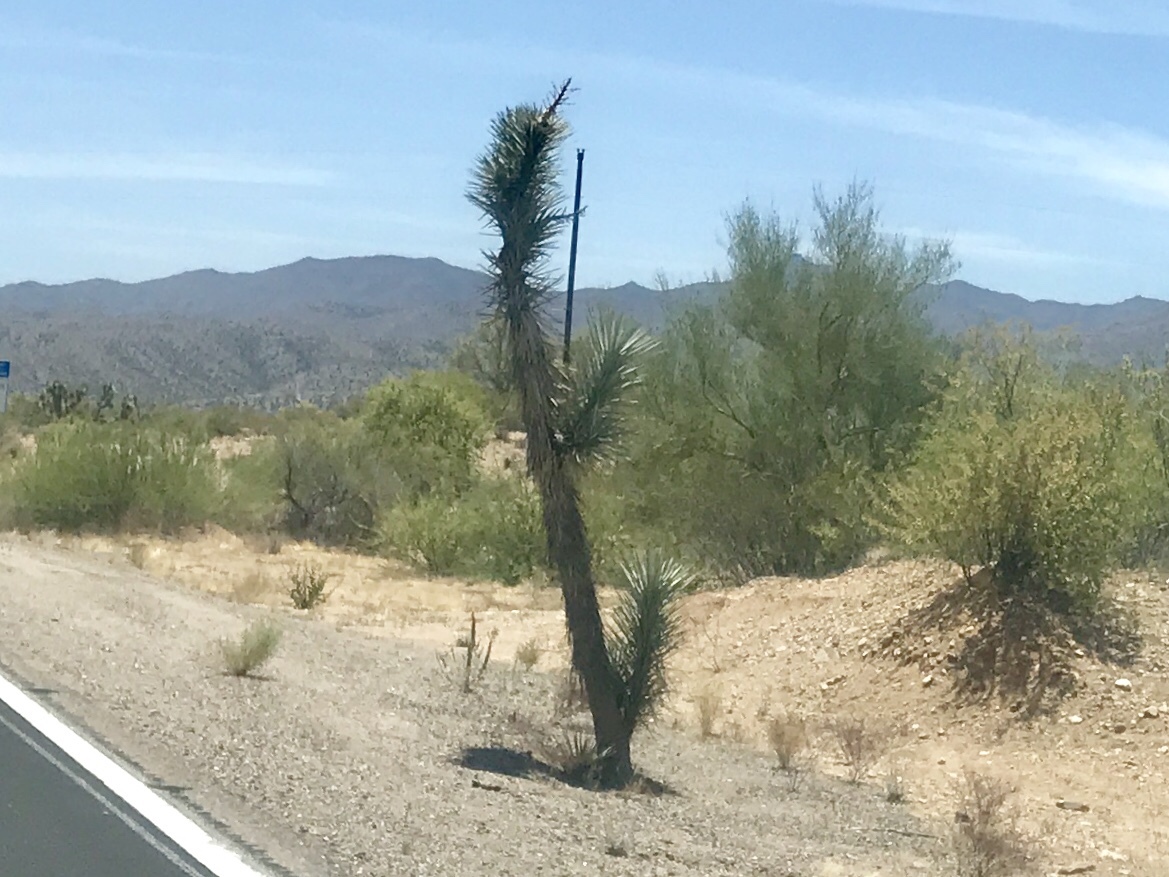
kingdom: Plantae
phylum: Tracheophyta
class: Liliopsida
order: Asparagales
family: Asparagaceae
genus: Yucca
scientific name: Yucca brevifolia
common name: Joshua tree
